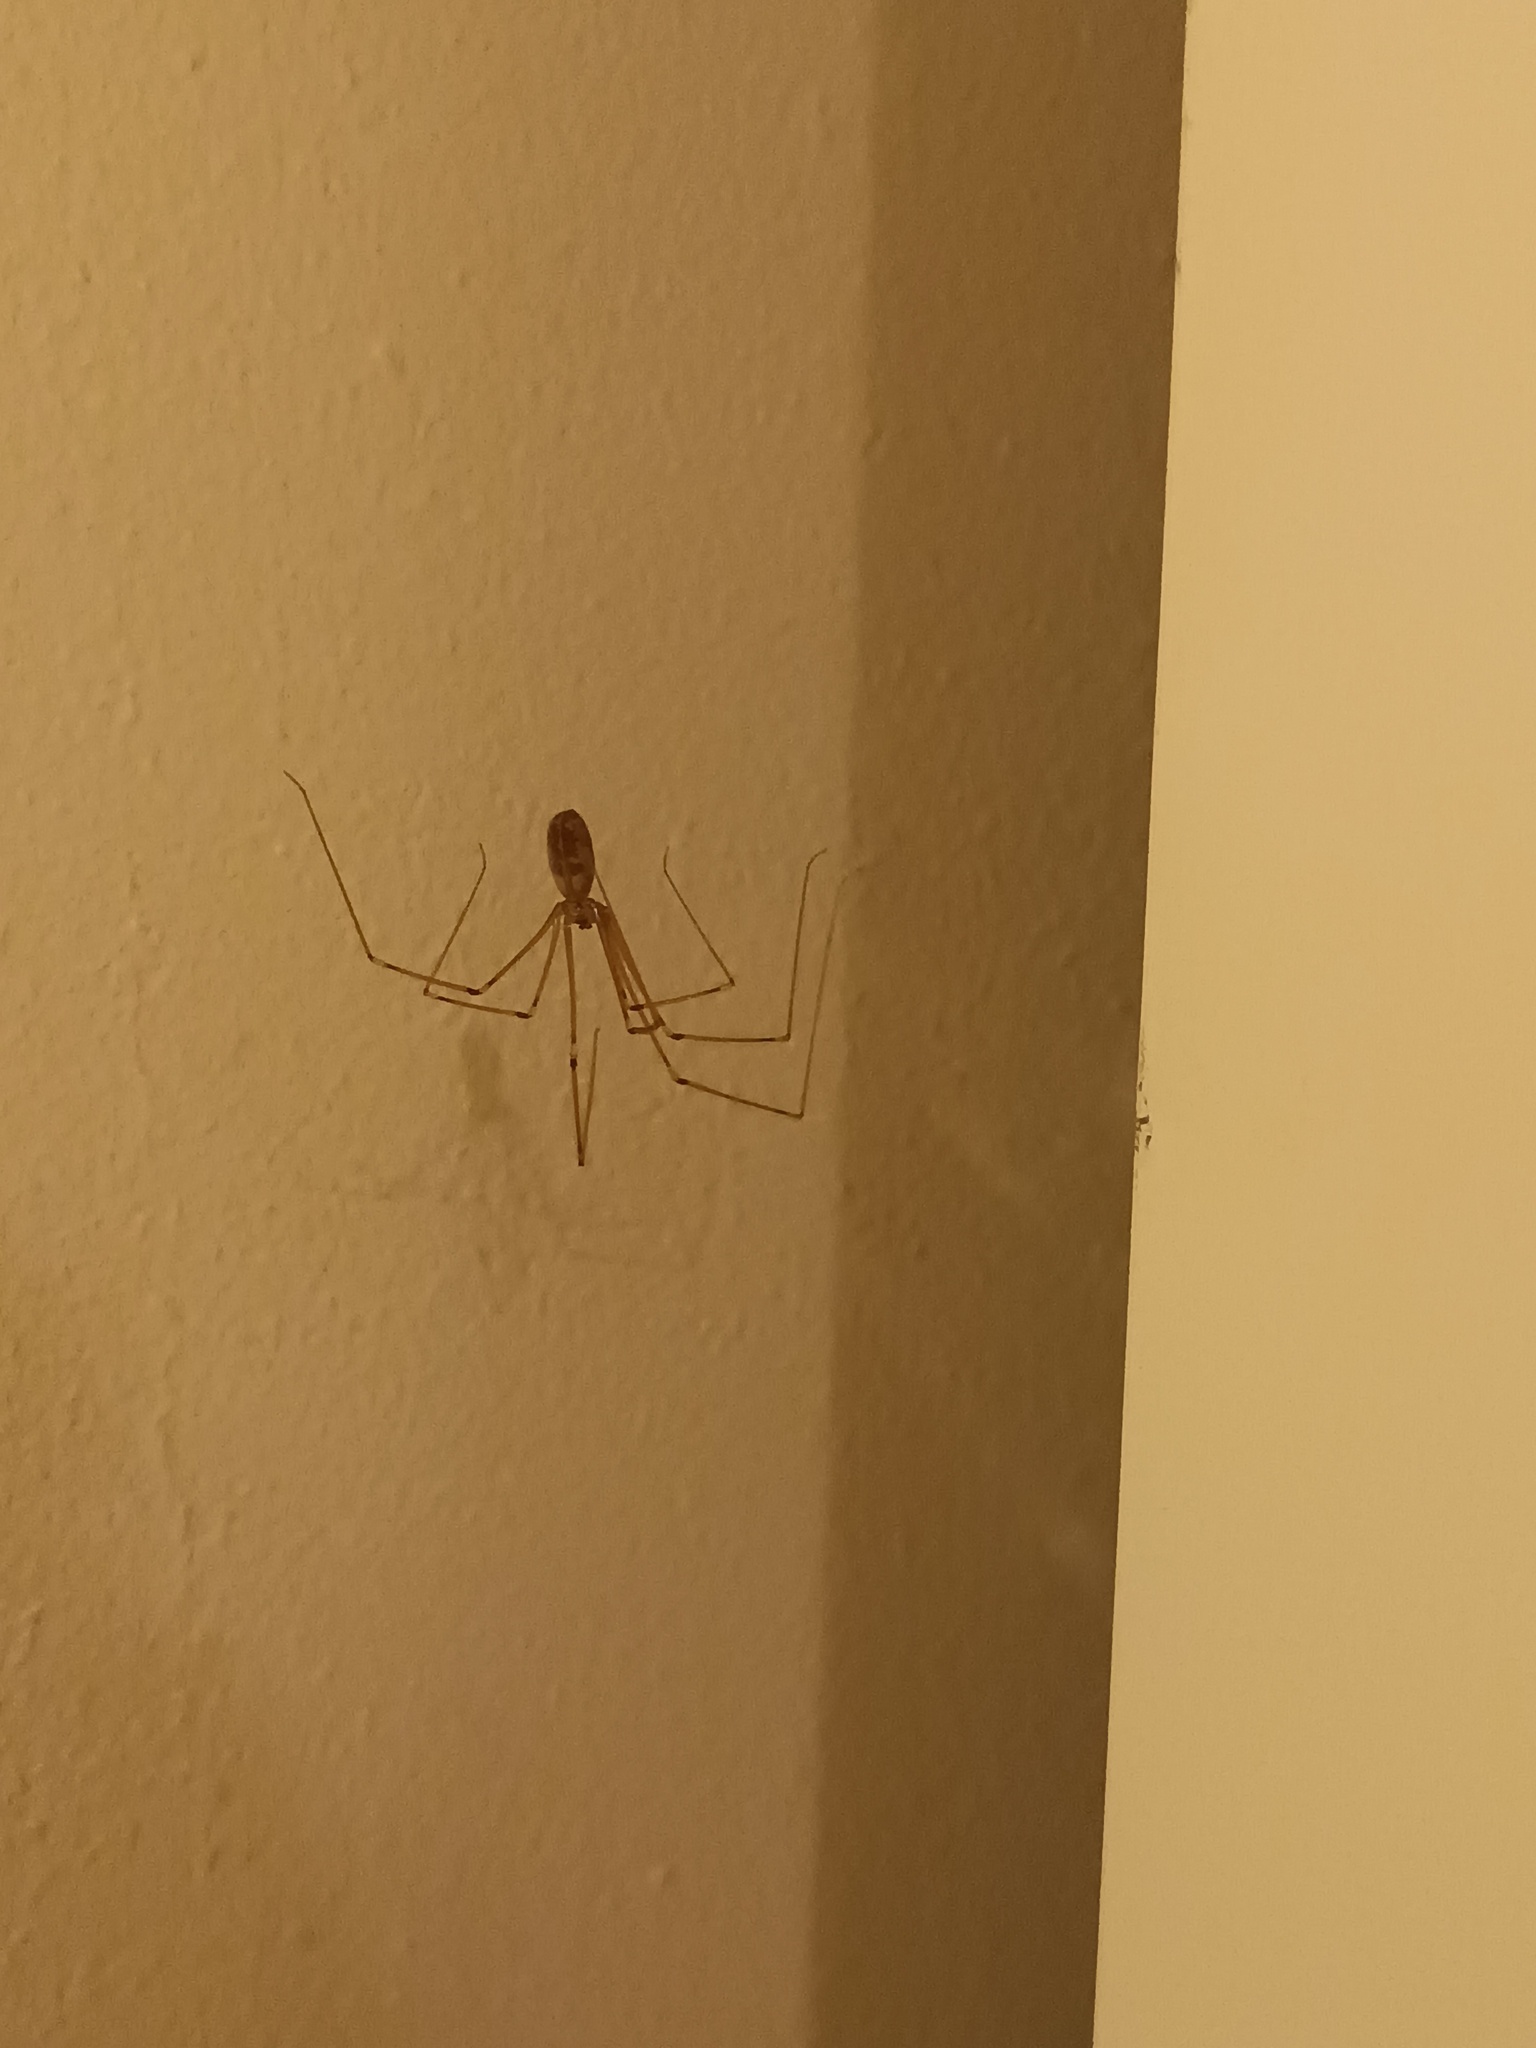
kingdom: Animalia
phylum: Arthropoda
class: Arachnida
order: Araneae
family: Pholcidae
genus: Pholcus
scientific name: Pholcus phalangioides
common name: Longbodied cellar spider
